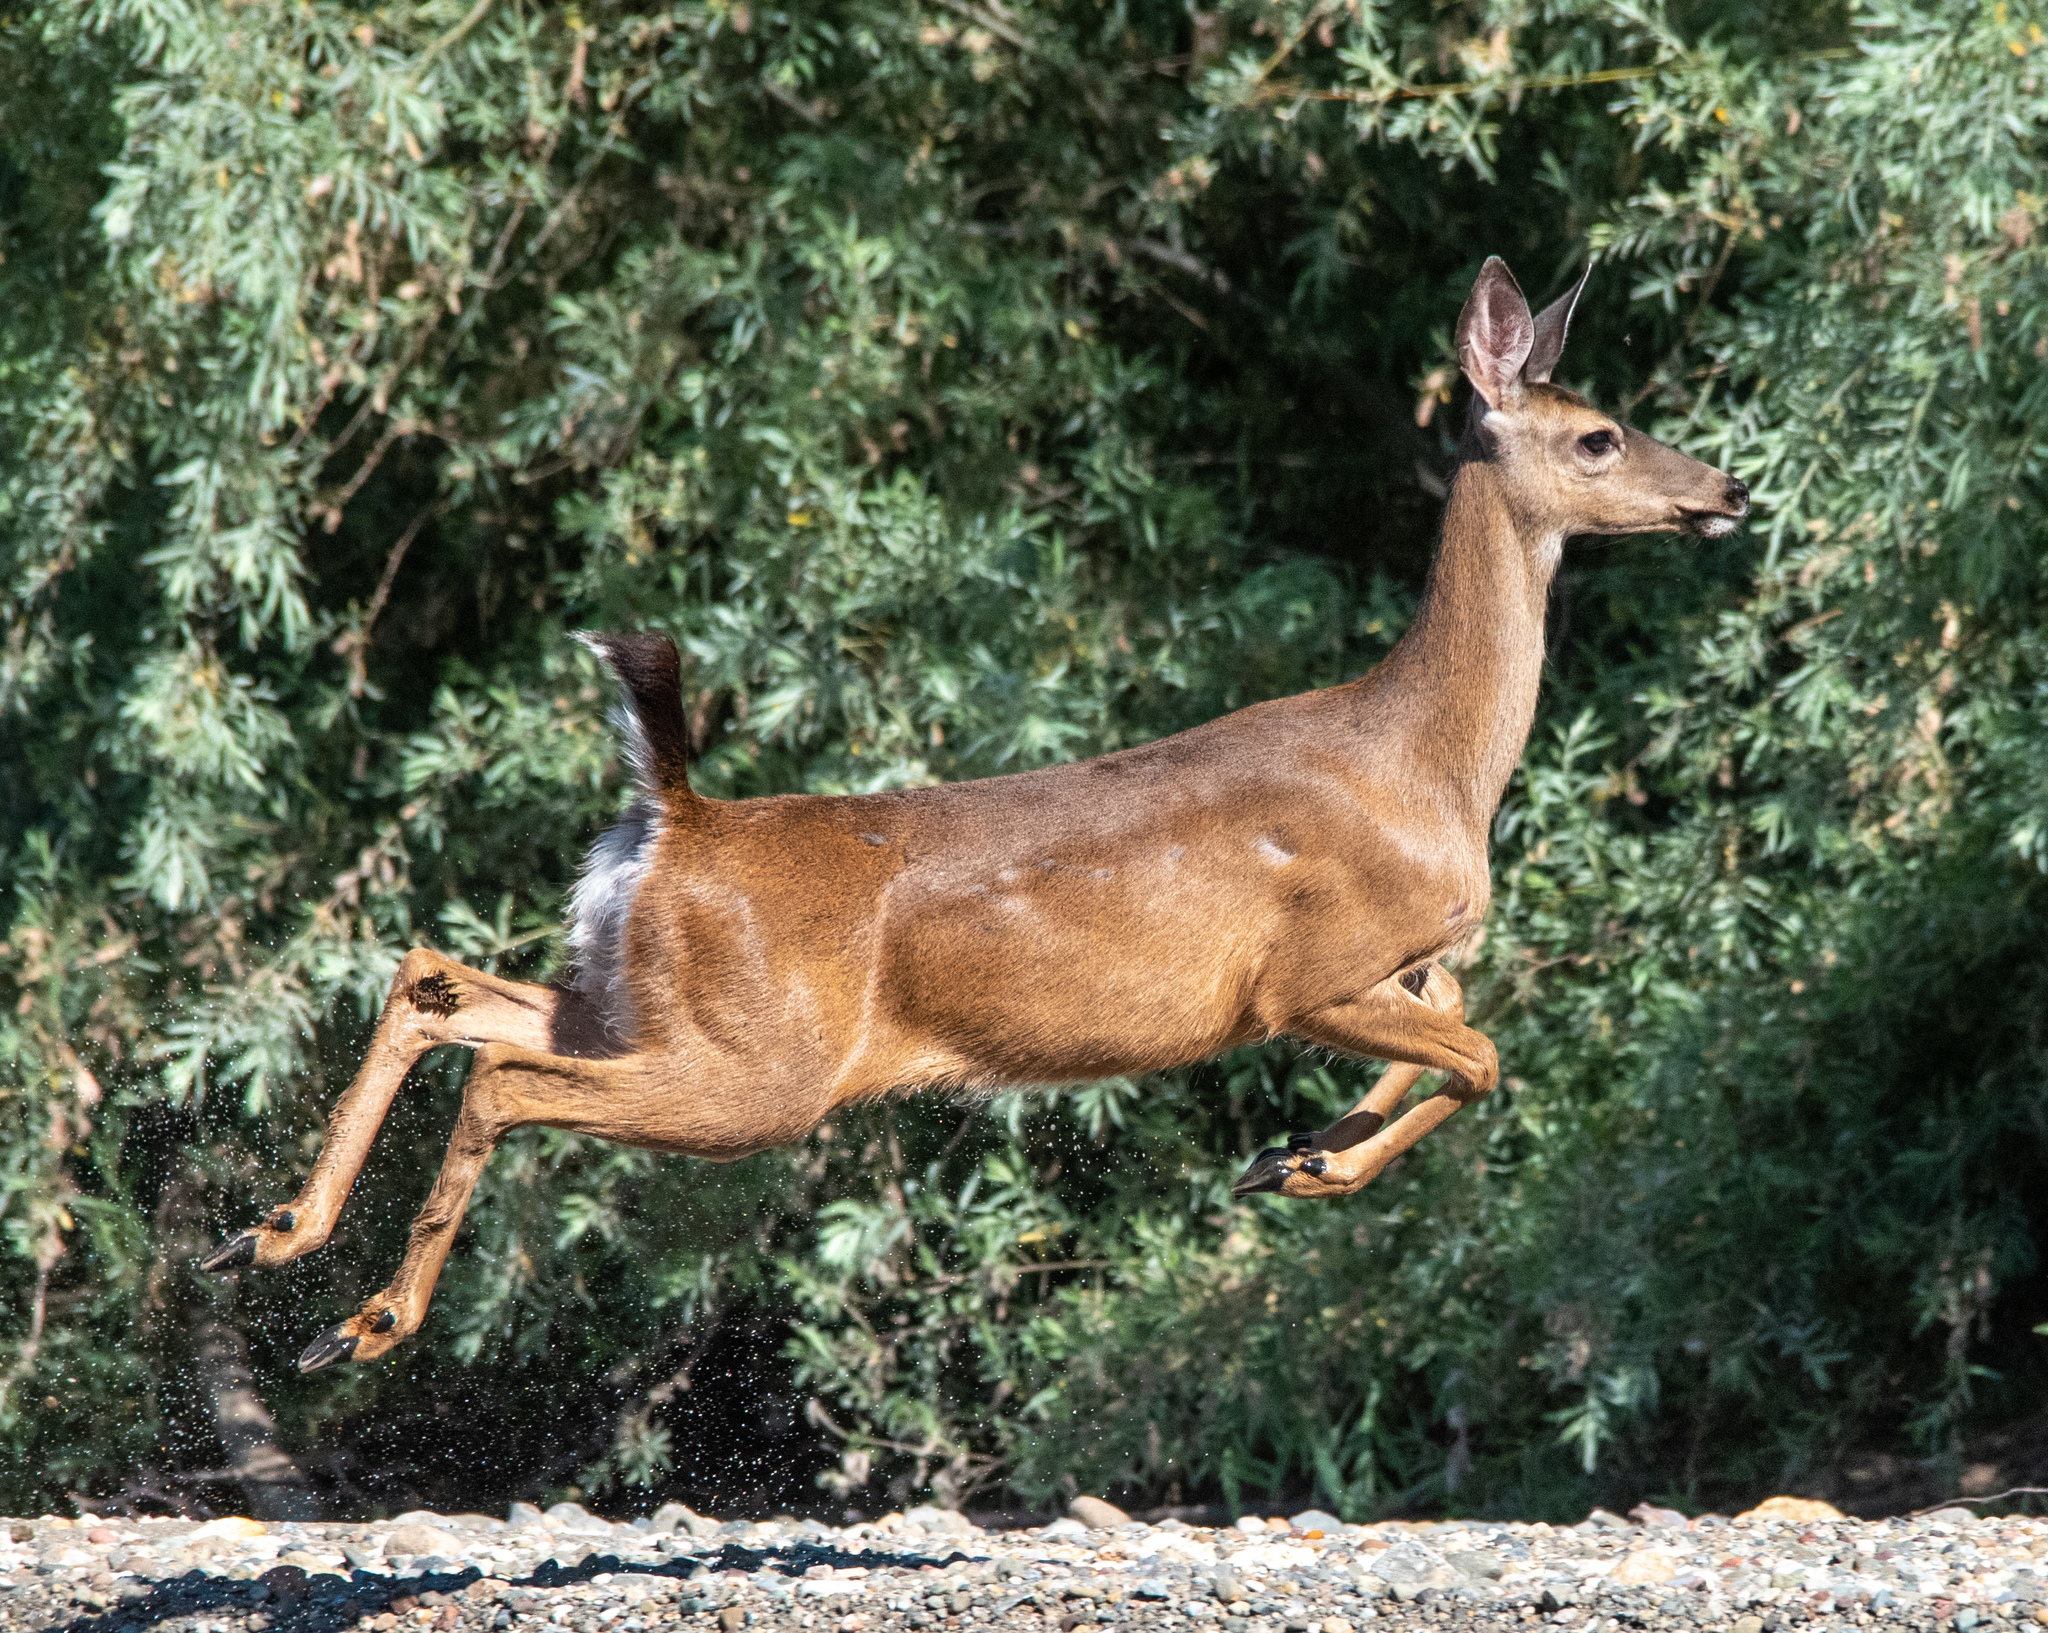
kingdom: Animalia
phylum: Chordata
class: Mammalia
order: Artiodactyla
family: Cervidae
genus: Odocoileus
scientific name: Odocoileus hemionus
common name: Mule deer
